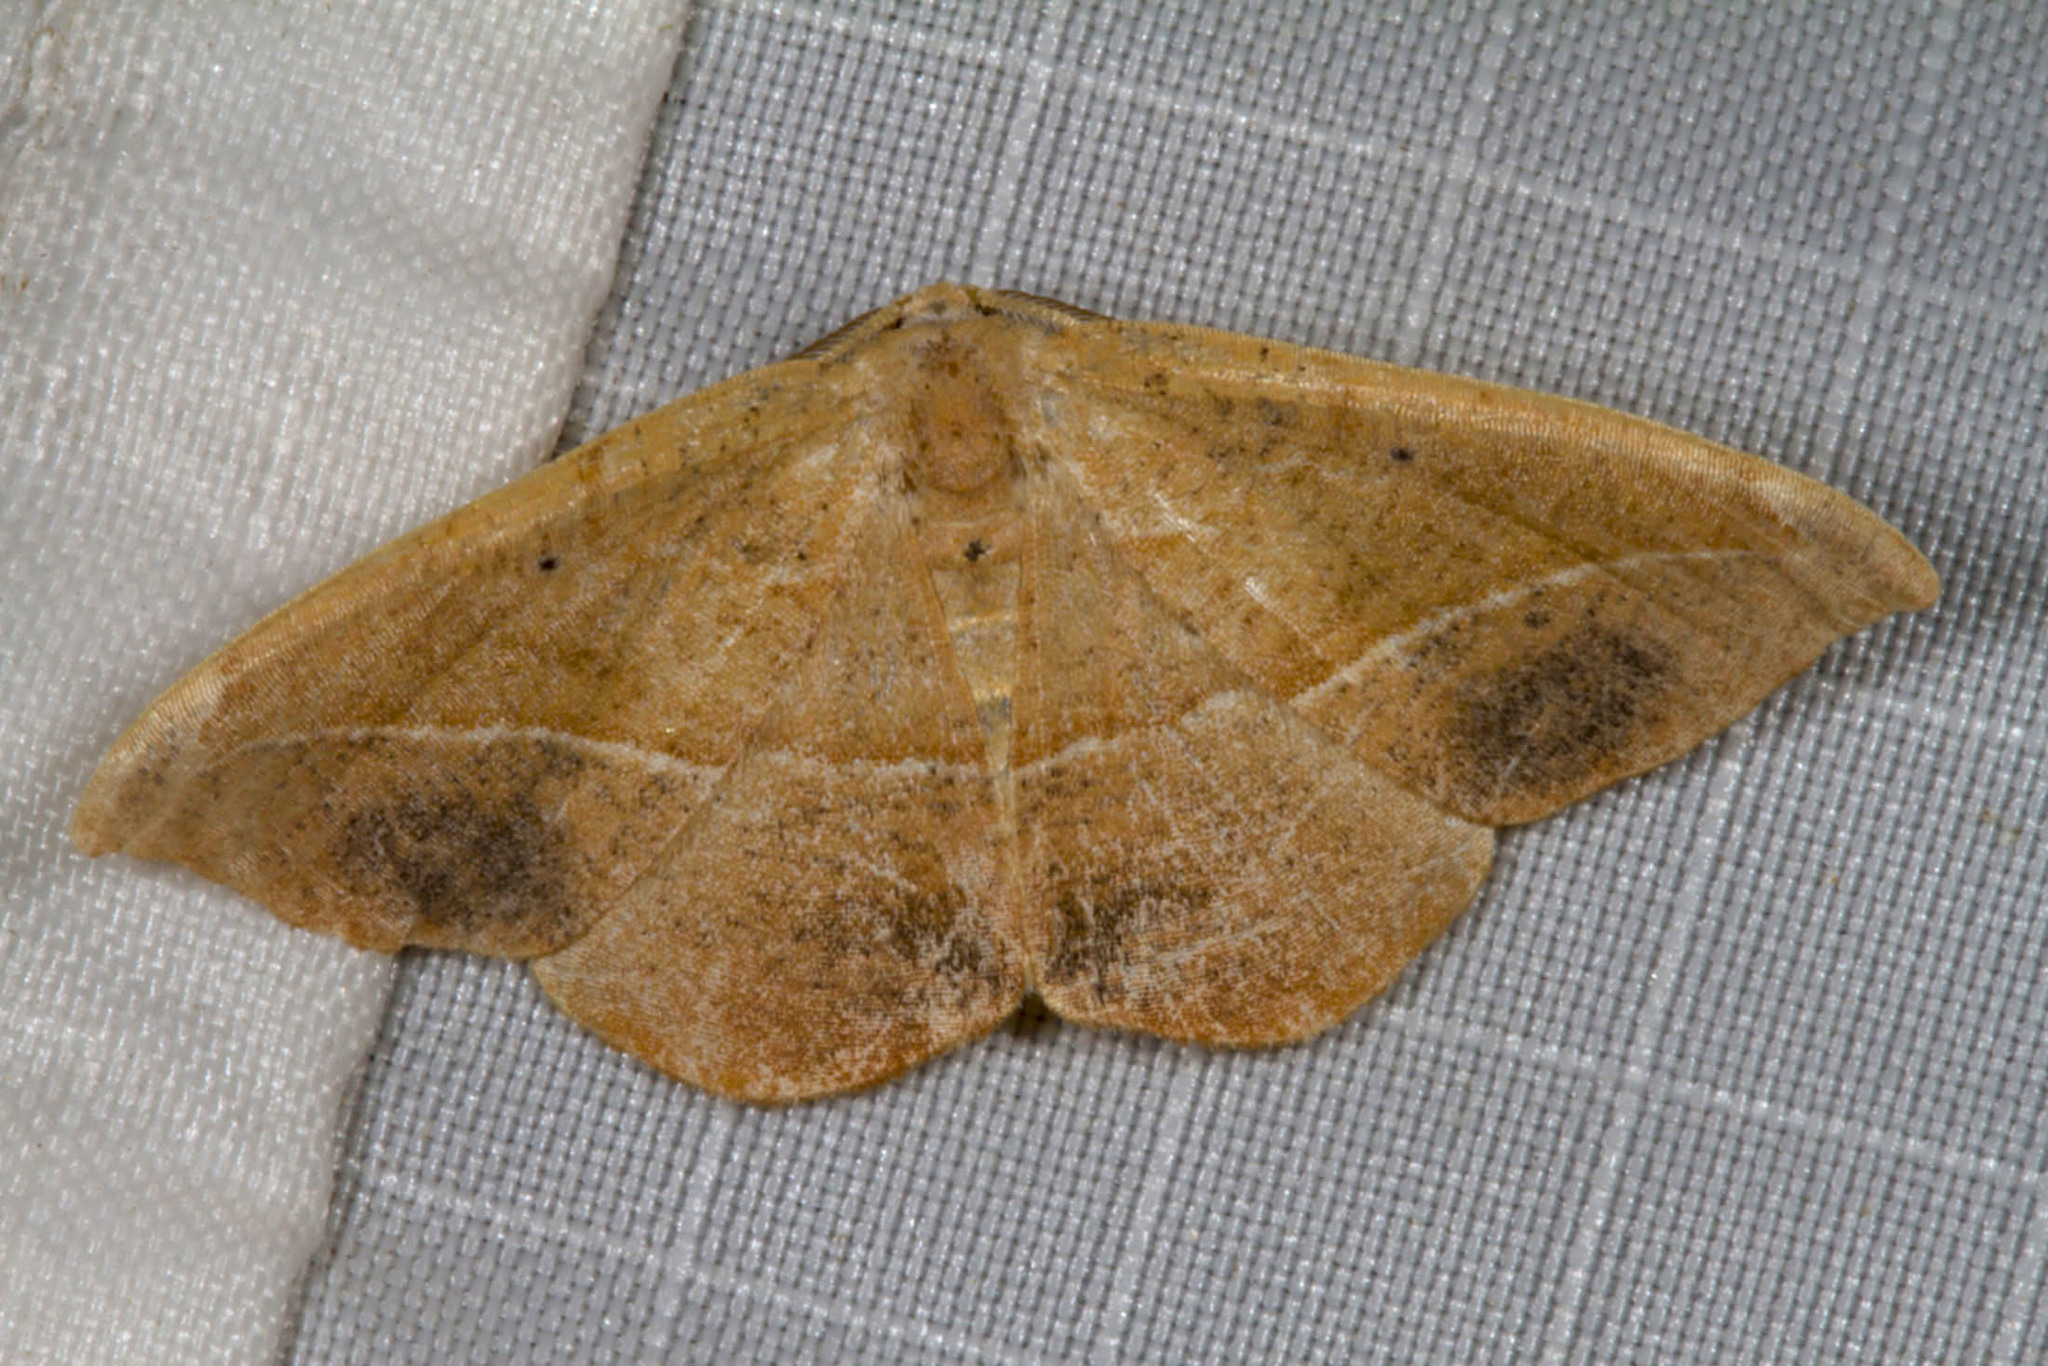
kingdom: Animalia
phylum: Arthropoda
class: Insecta
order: Lepidoptera
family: Geometridae
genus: Patalene
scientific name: Patalene olyzonaria
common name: Juniper geometer moth
